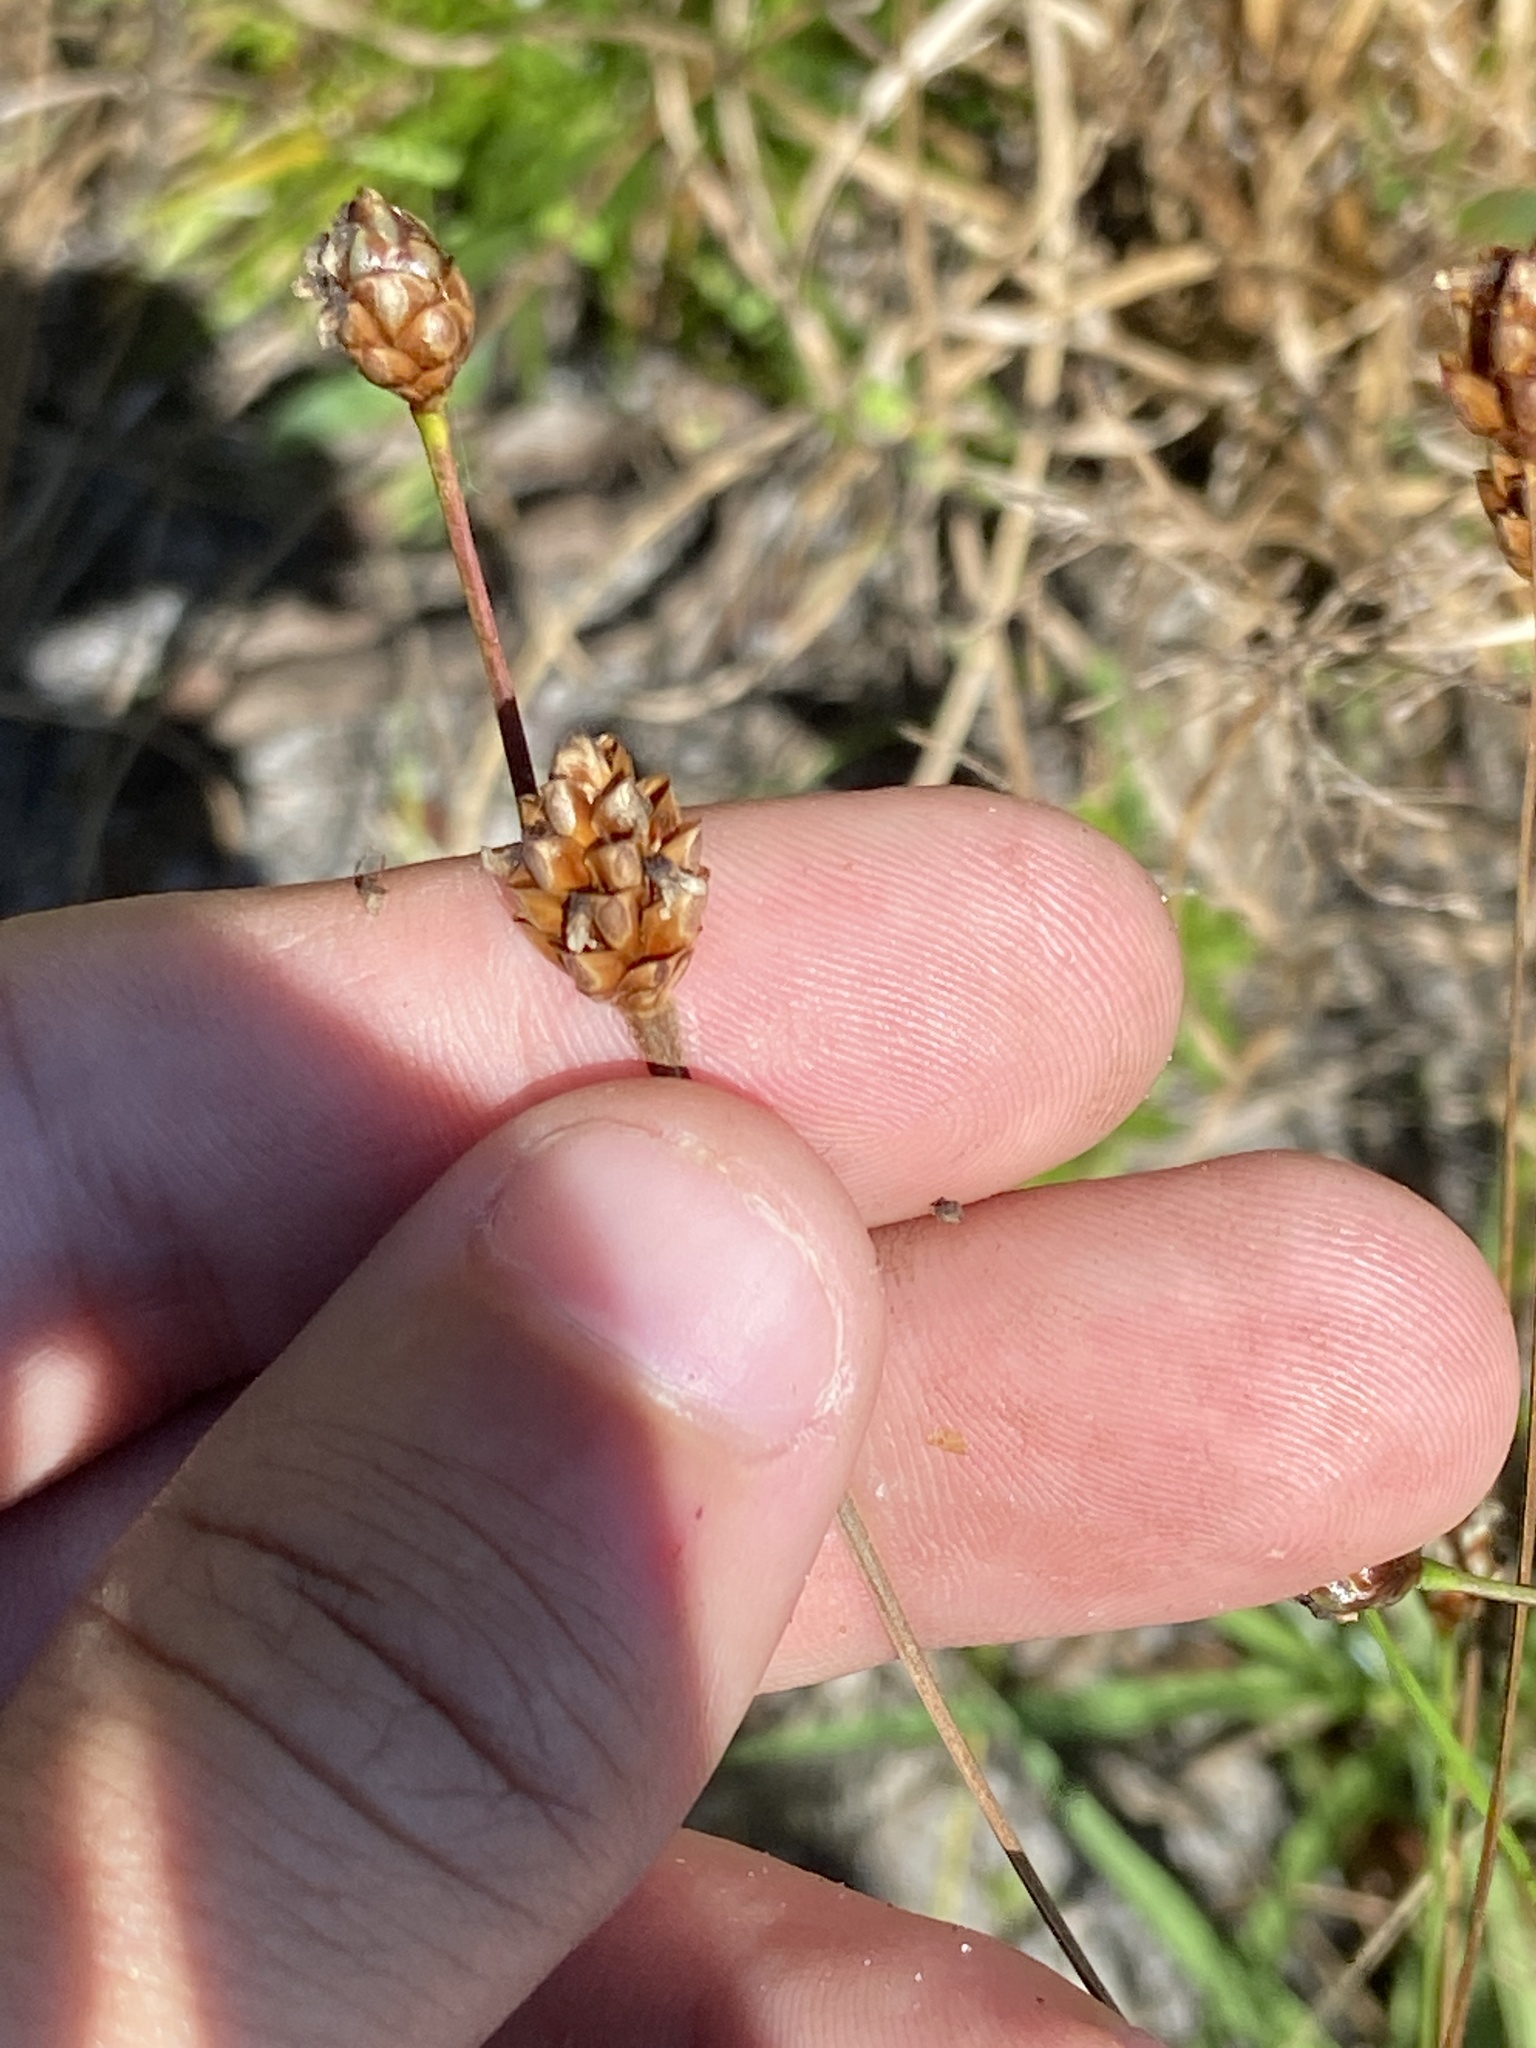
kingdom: Plantae
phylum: Tracheophyta
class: Liliopsida
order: Poales
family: Xyridaceae
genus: Xyris
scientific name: Xyris jupicai
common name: Richard's yelloweyed grass
